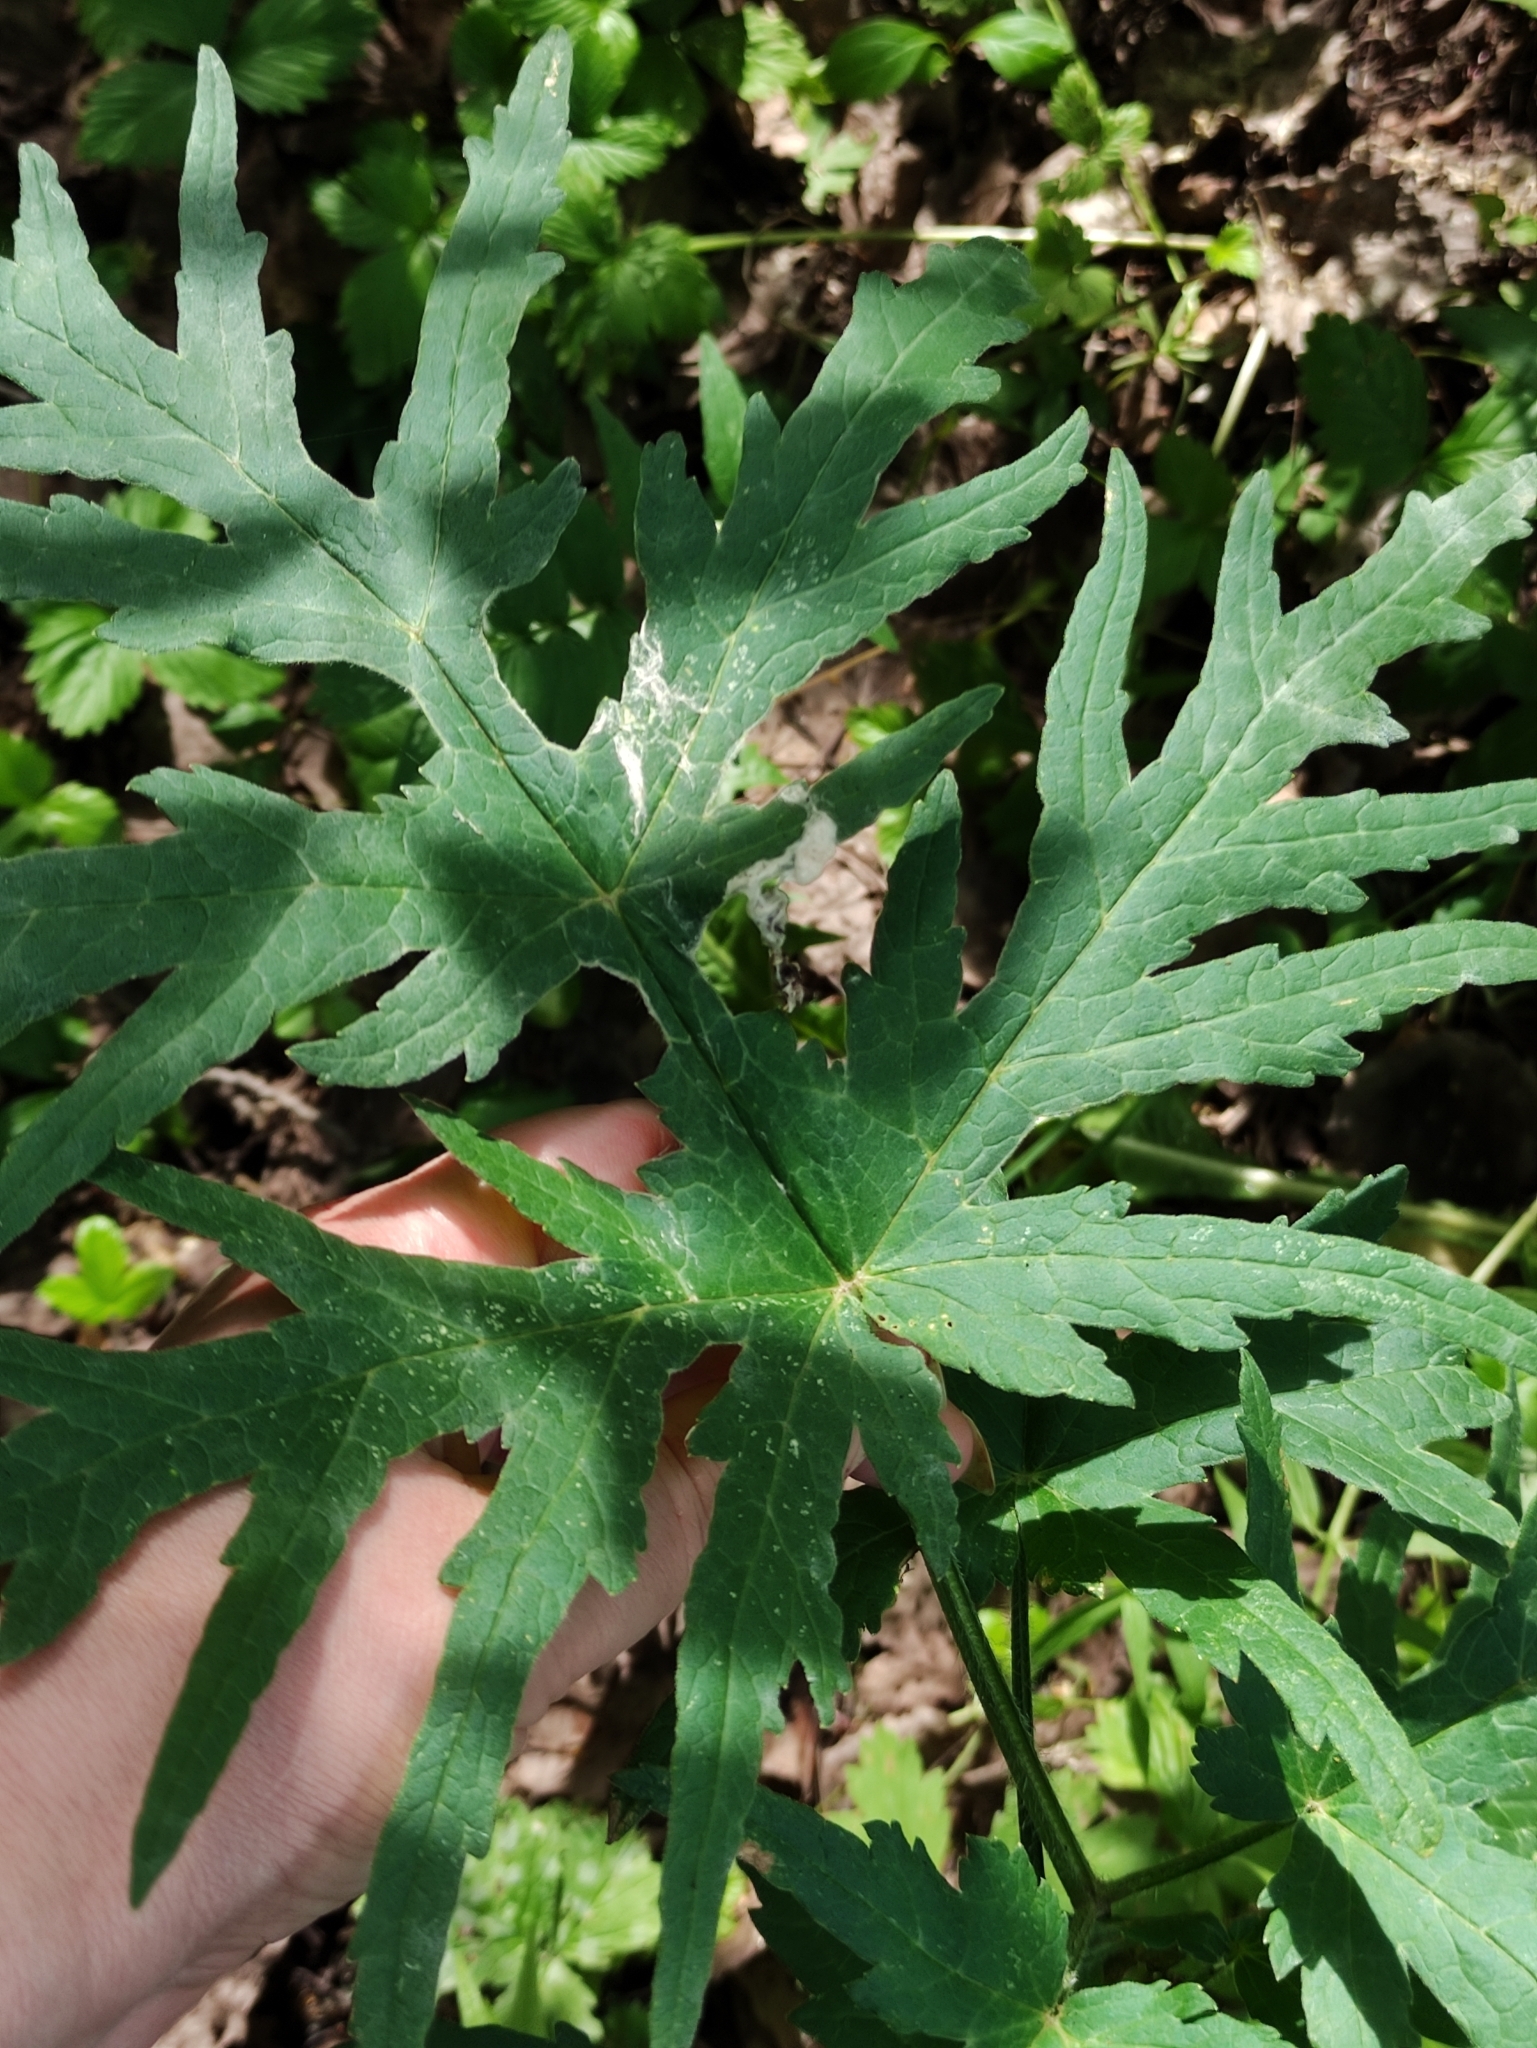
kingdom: Plantae
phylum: Tracheophyta
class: Magnoliopsida
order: Apiales
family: Apiaceae
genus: Heracleum
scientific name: Heracleum sphondylium
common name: Hogweed
